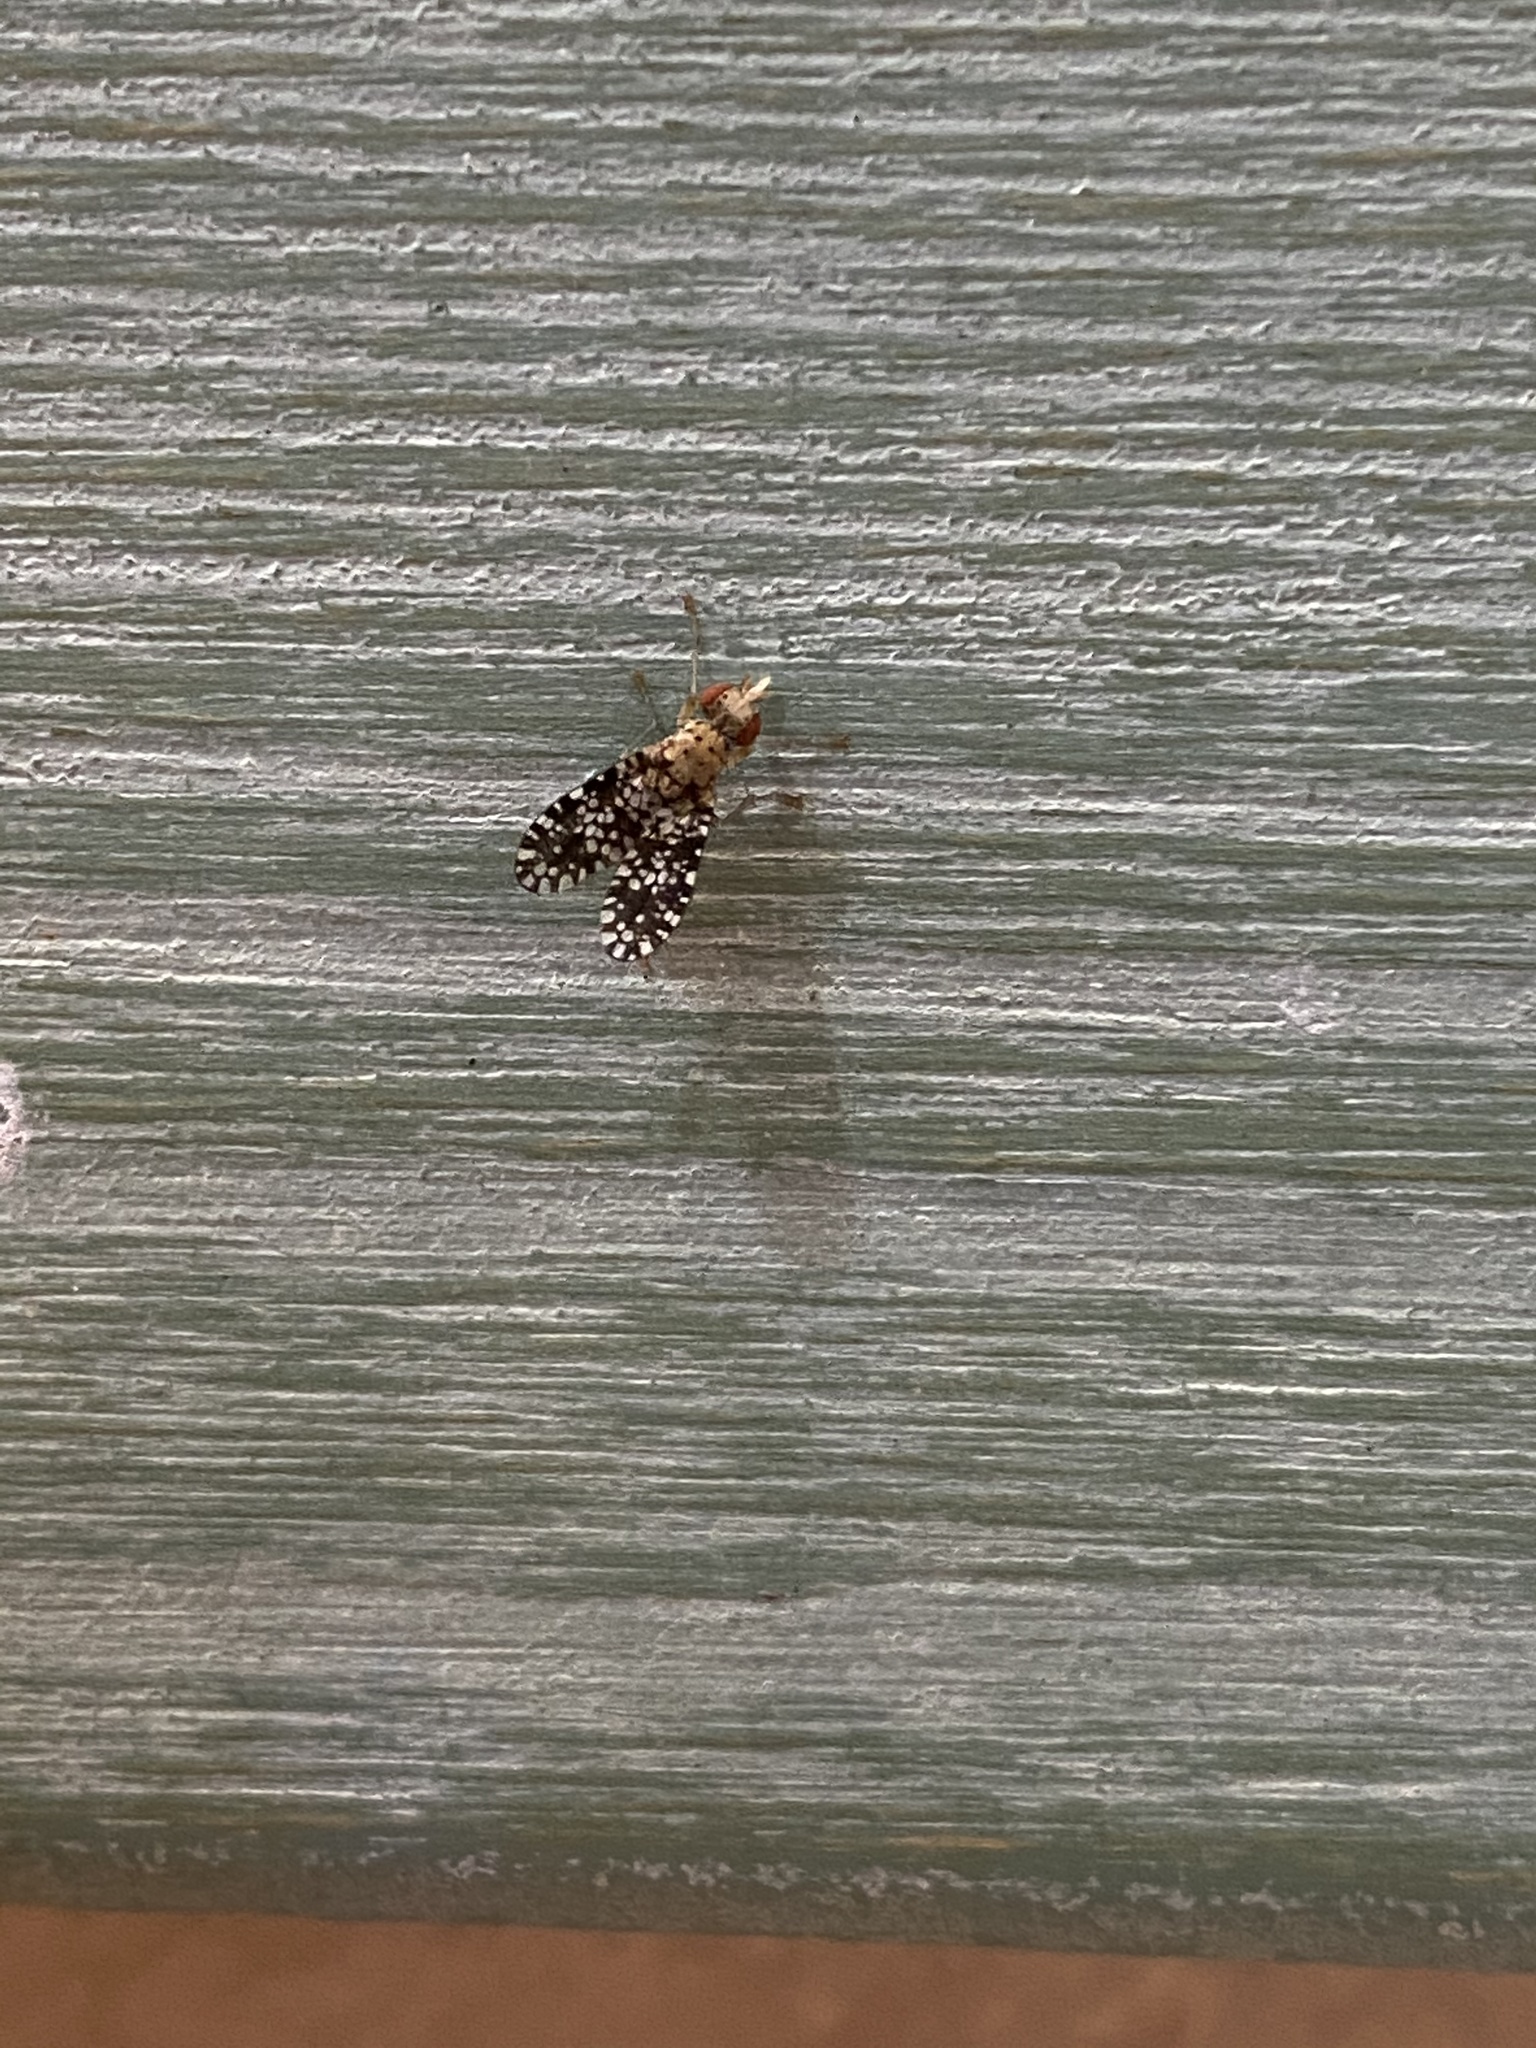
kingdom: Animalia
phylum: Arthropoda
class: Insecta
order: Diptera
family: Sciomyzidae
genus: Trypetoptera
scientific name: Trypetoptera punctulata
